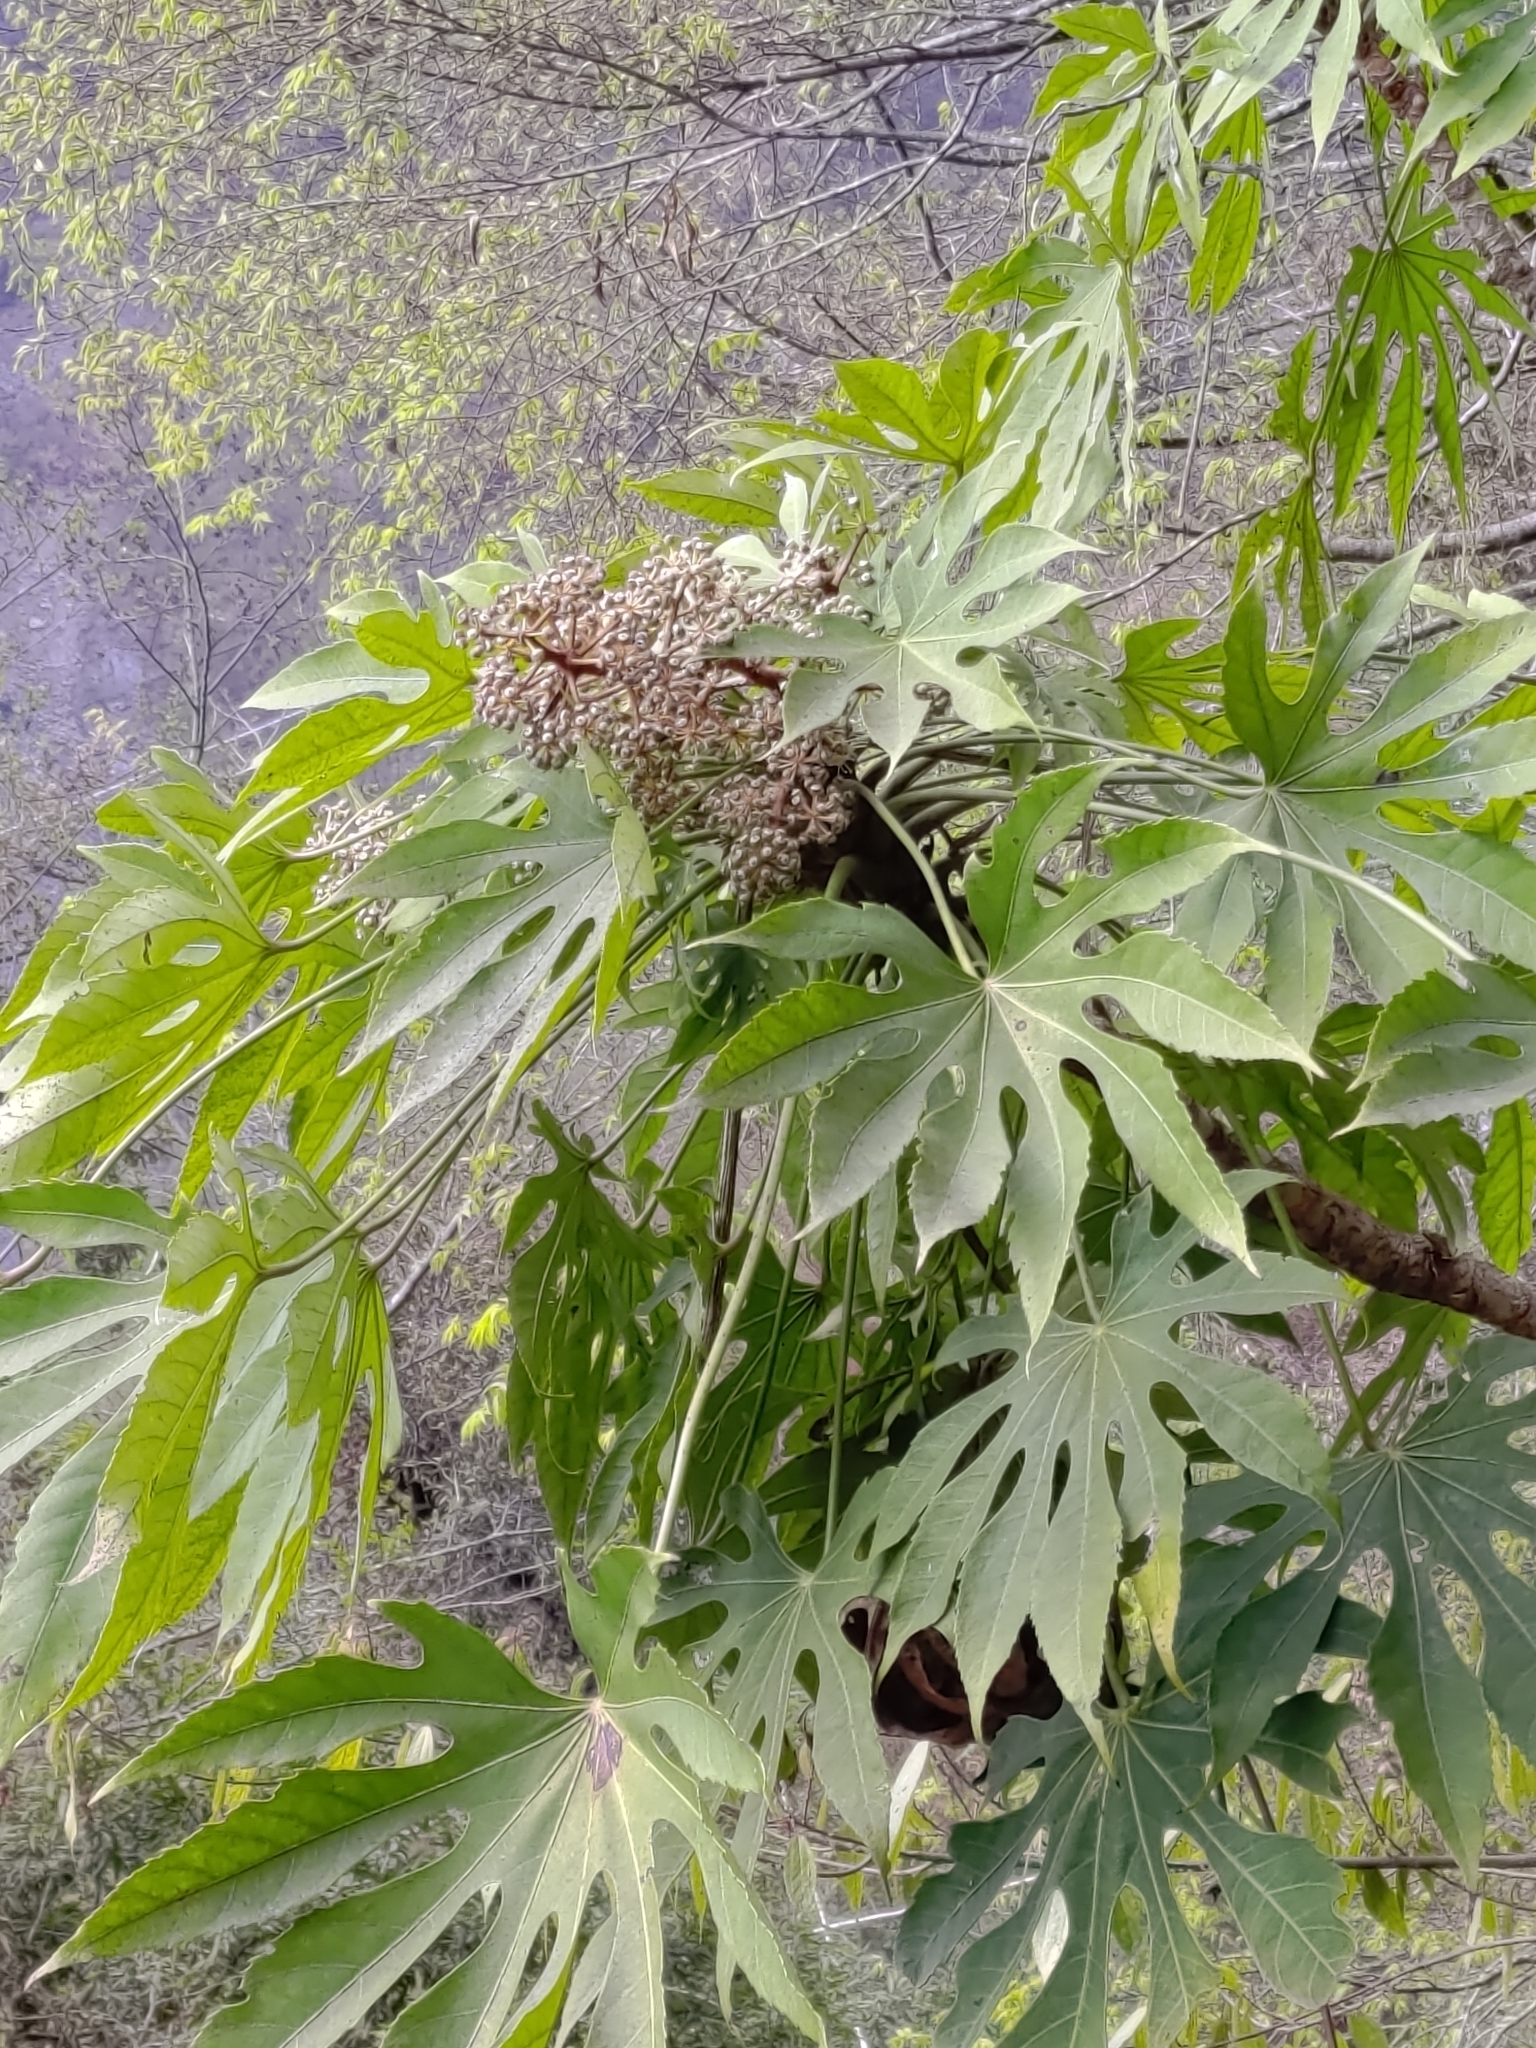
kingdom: Plantae
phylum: Tracheophyta
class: Magnoliopsida
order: Apiales
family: Araliaceae
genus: Fatsia
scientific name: Fatsia polycarpa
